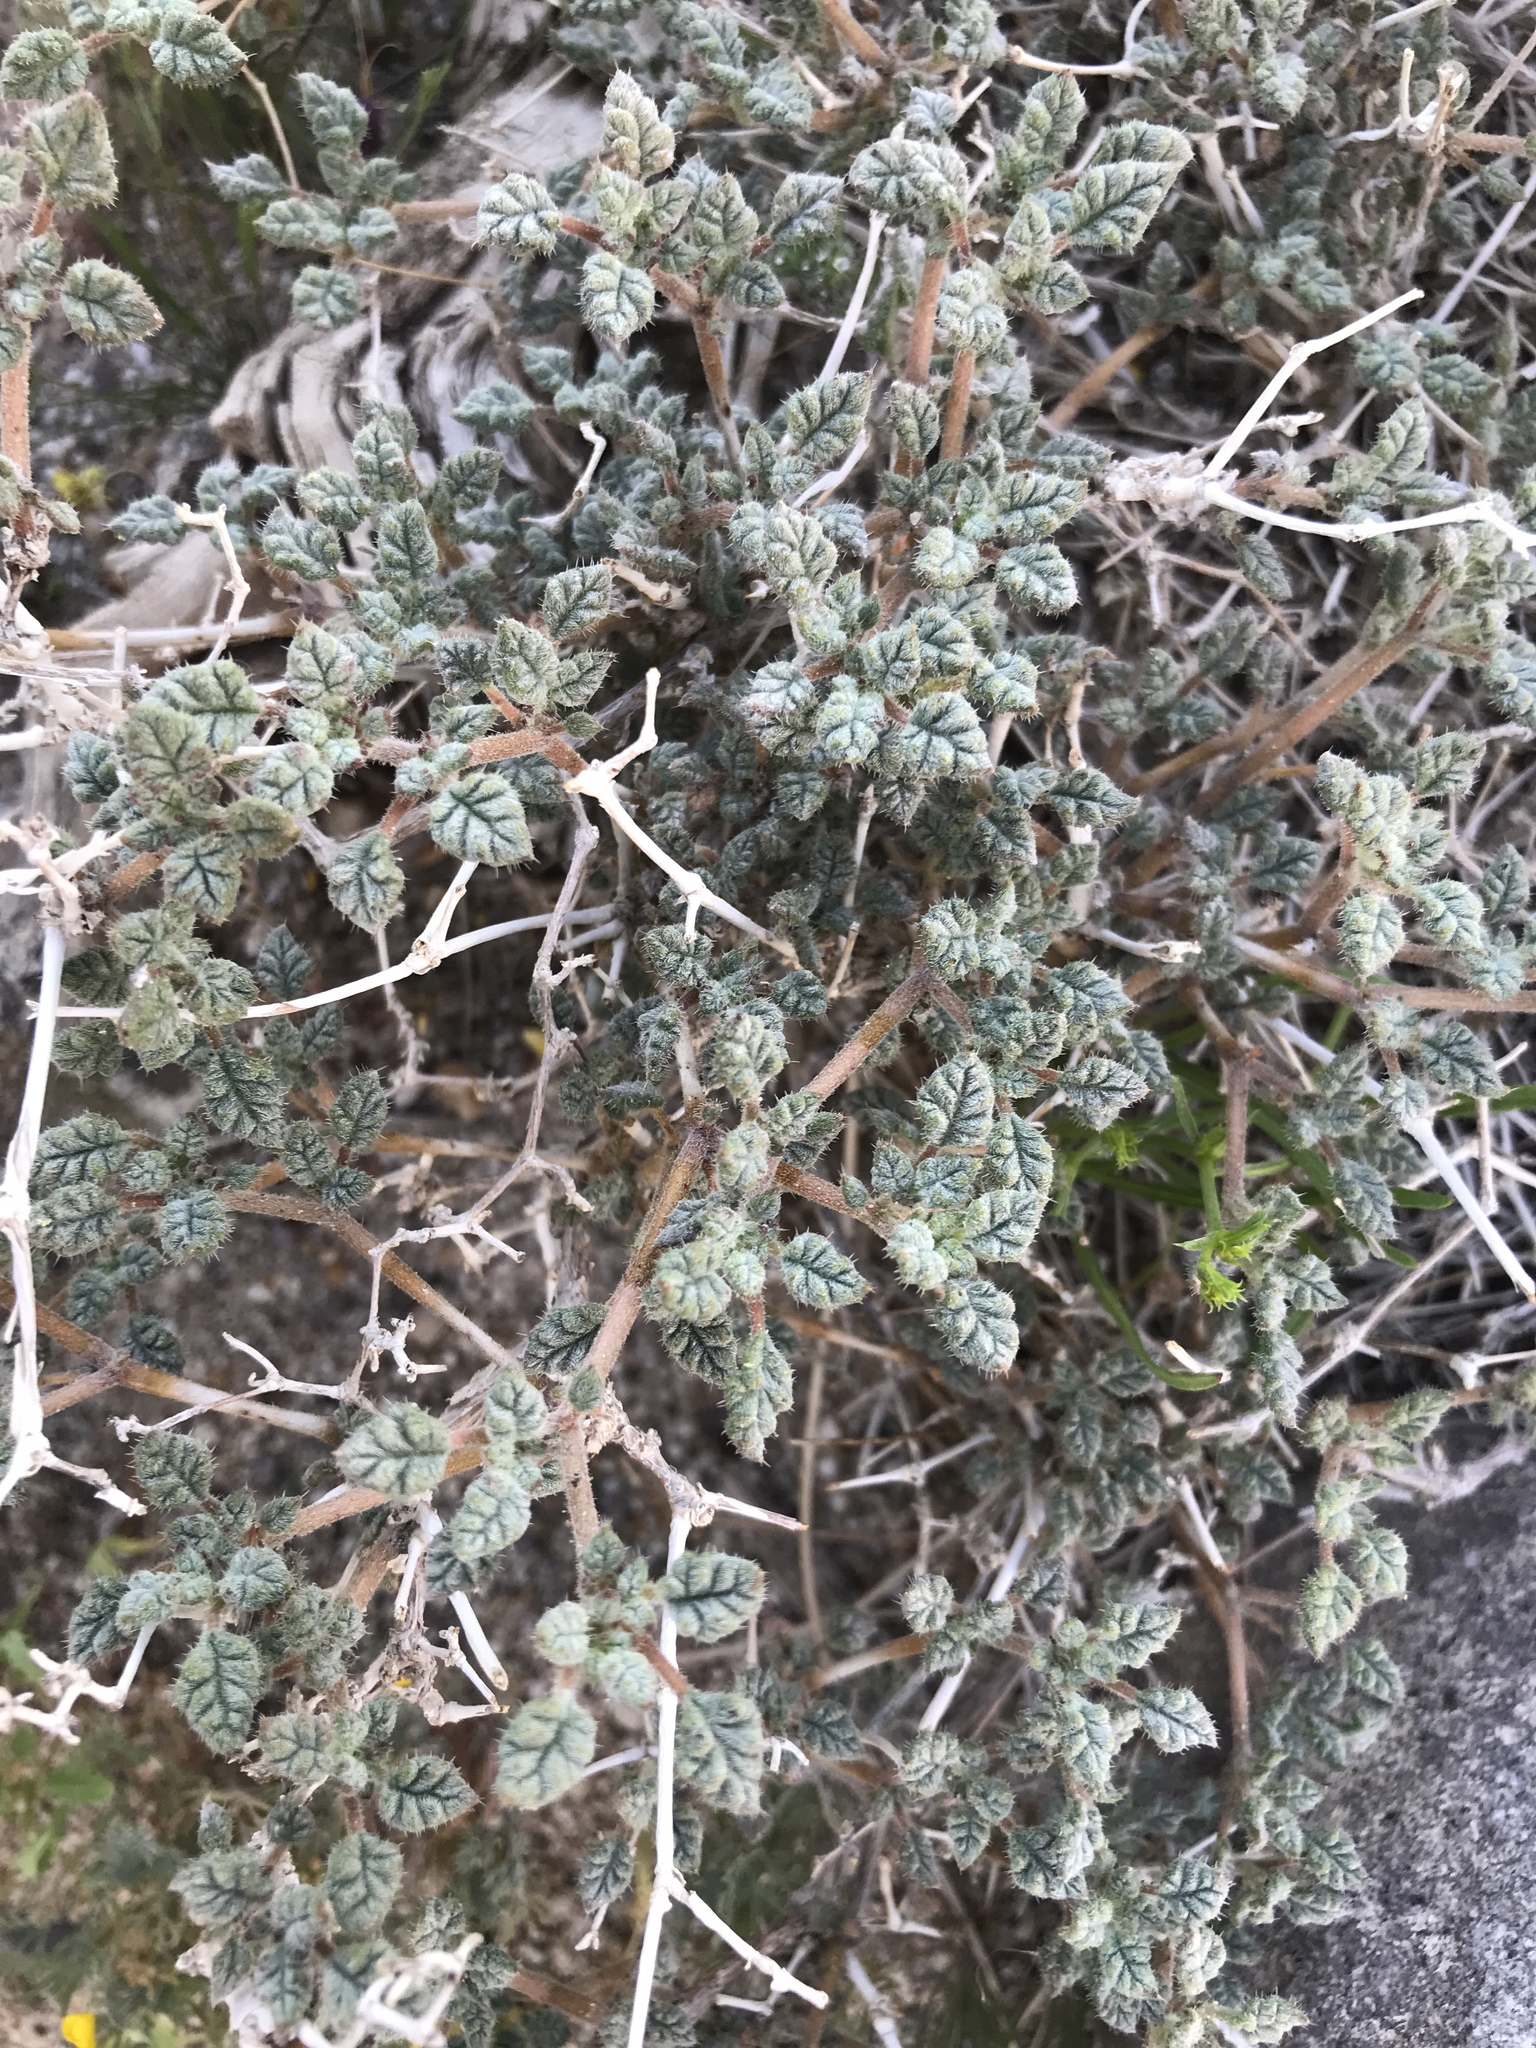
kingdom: Plantae
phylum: Tracheophyta
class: Magnoliopsida
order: Boraginales
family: Ehretiaceae
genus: Tiquilia
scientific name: Tiquilia palmeri
